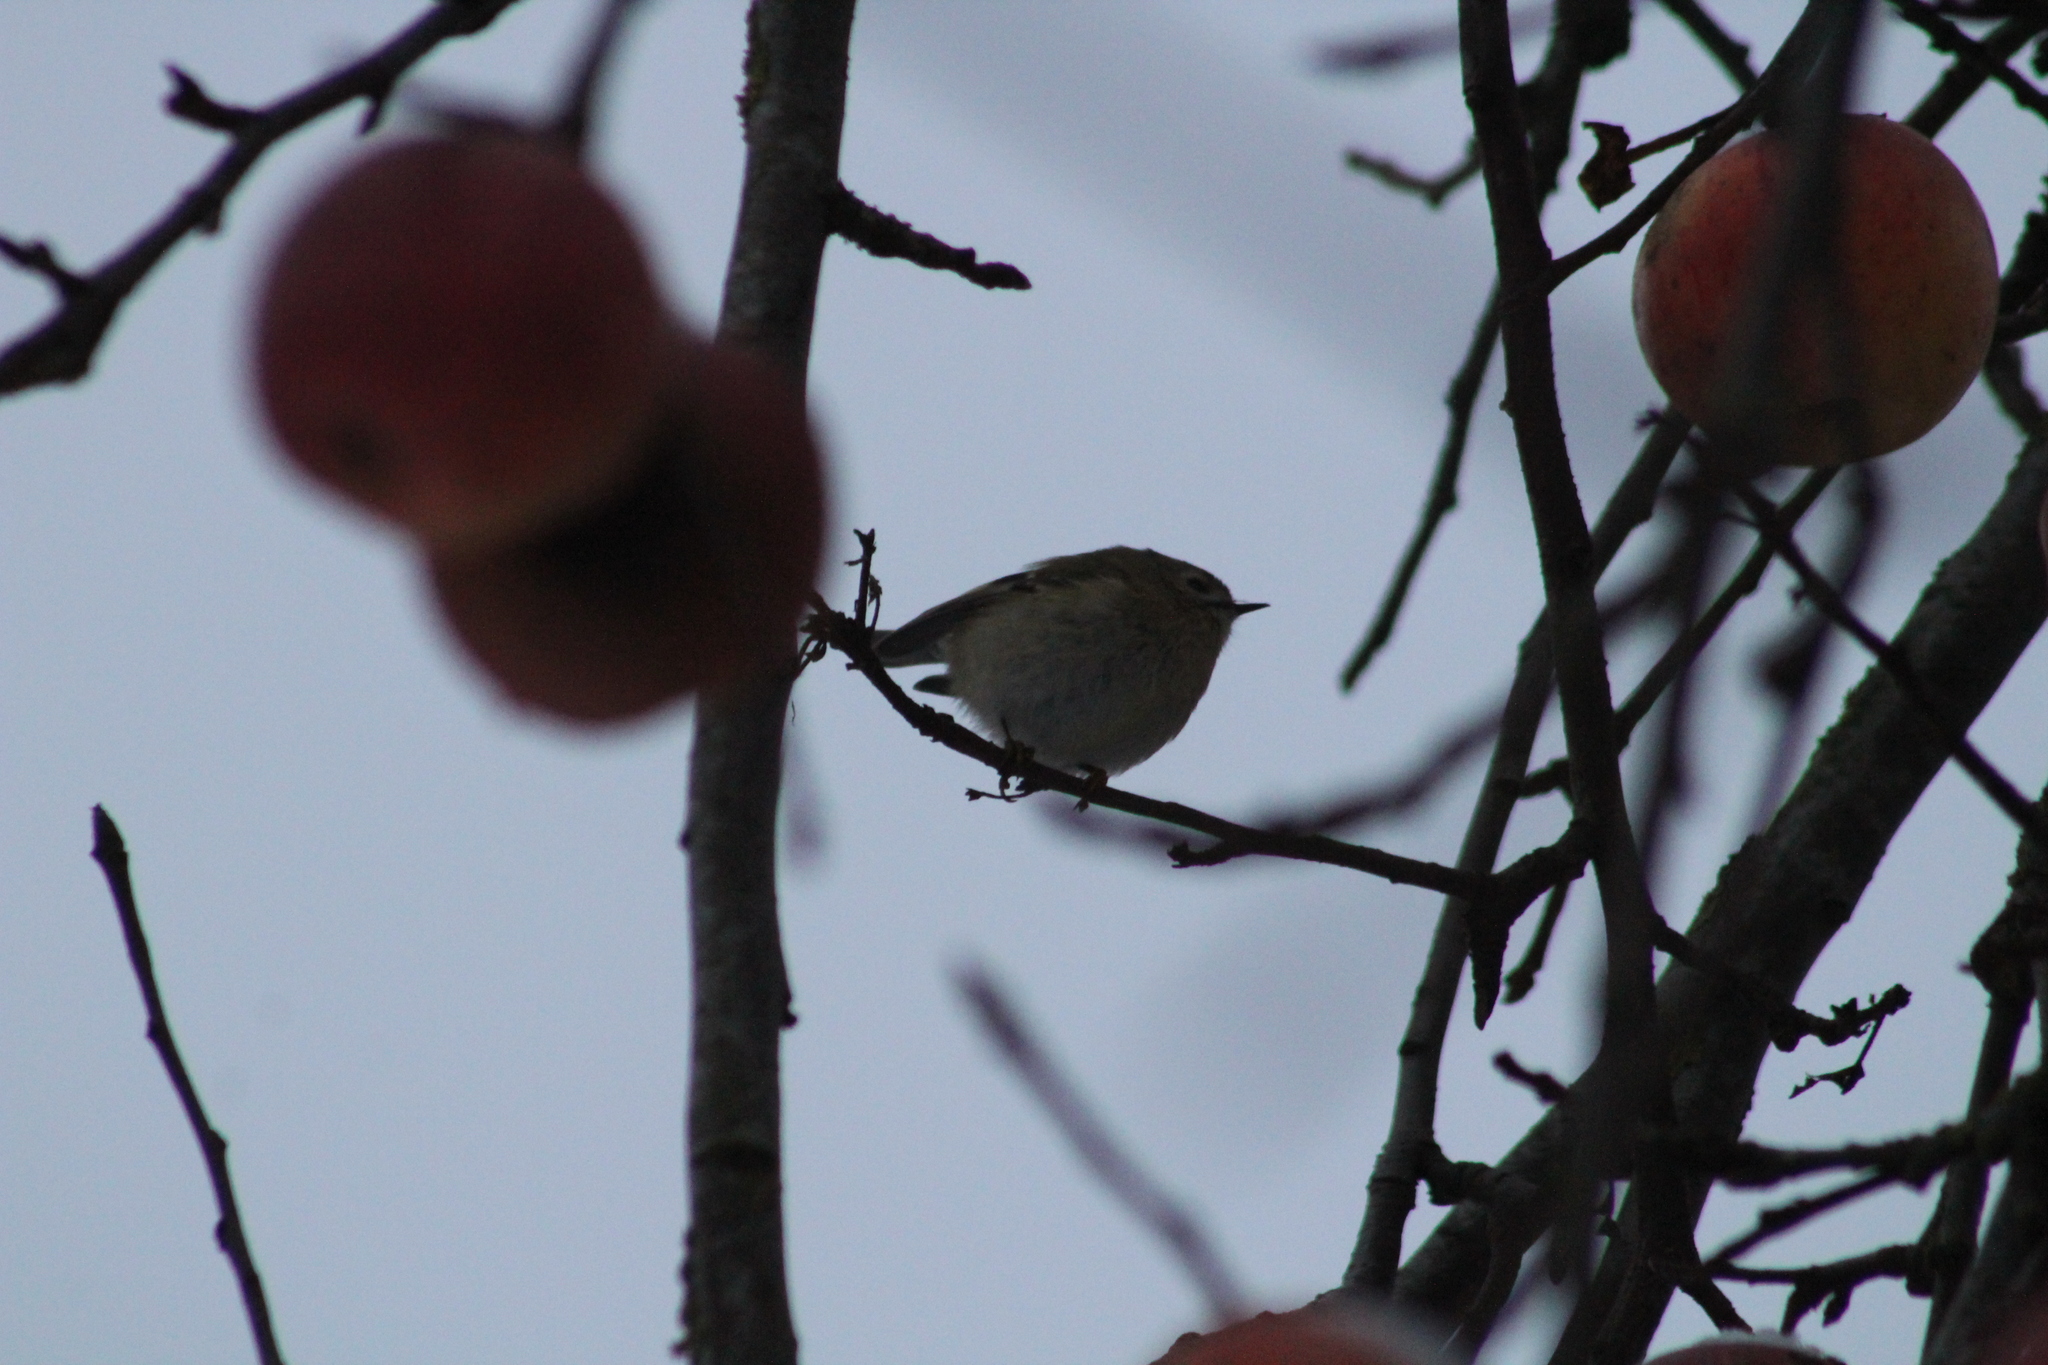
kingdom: Animalia
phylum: Chordata
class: Aves
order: Passeriformes
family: Regulidae
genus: Regulus
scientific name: Regulus regulus
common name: Goldcrest
